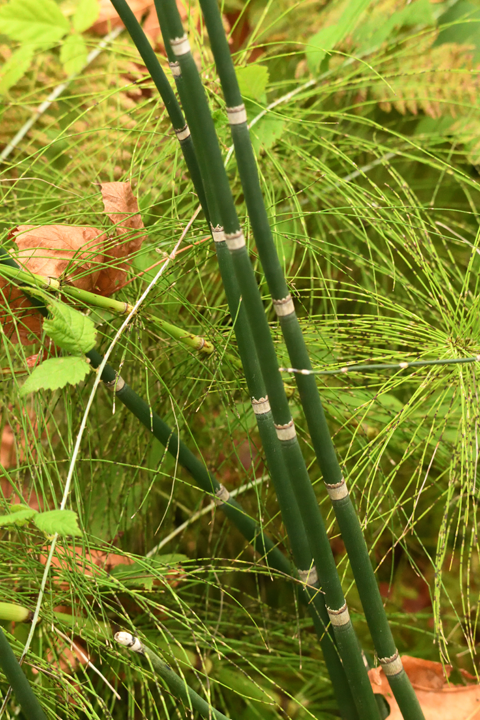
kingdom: Plantae
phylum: Tracheophyta
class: Polypodiopsida
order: Equisetales
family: Equisetaceae
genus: Equisetum
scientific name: Equisetum praealtum
